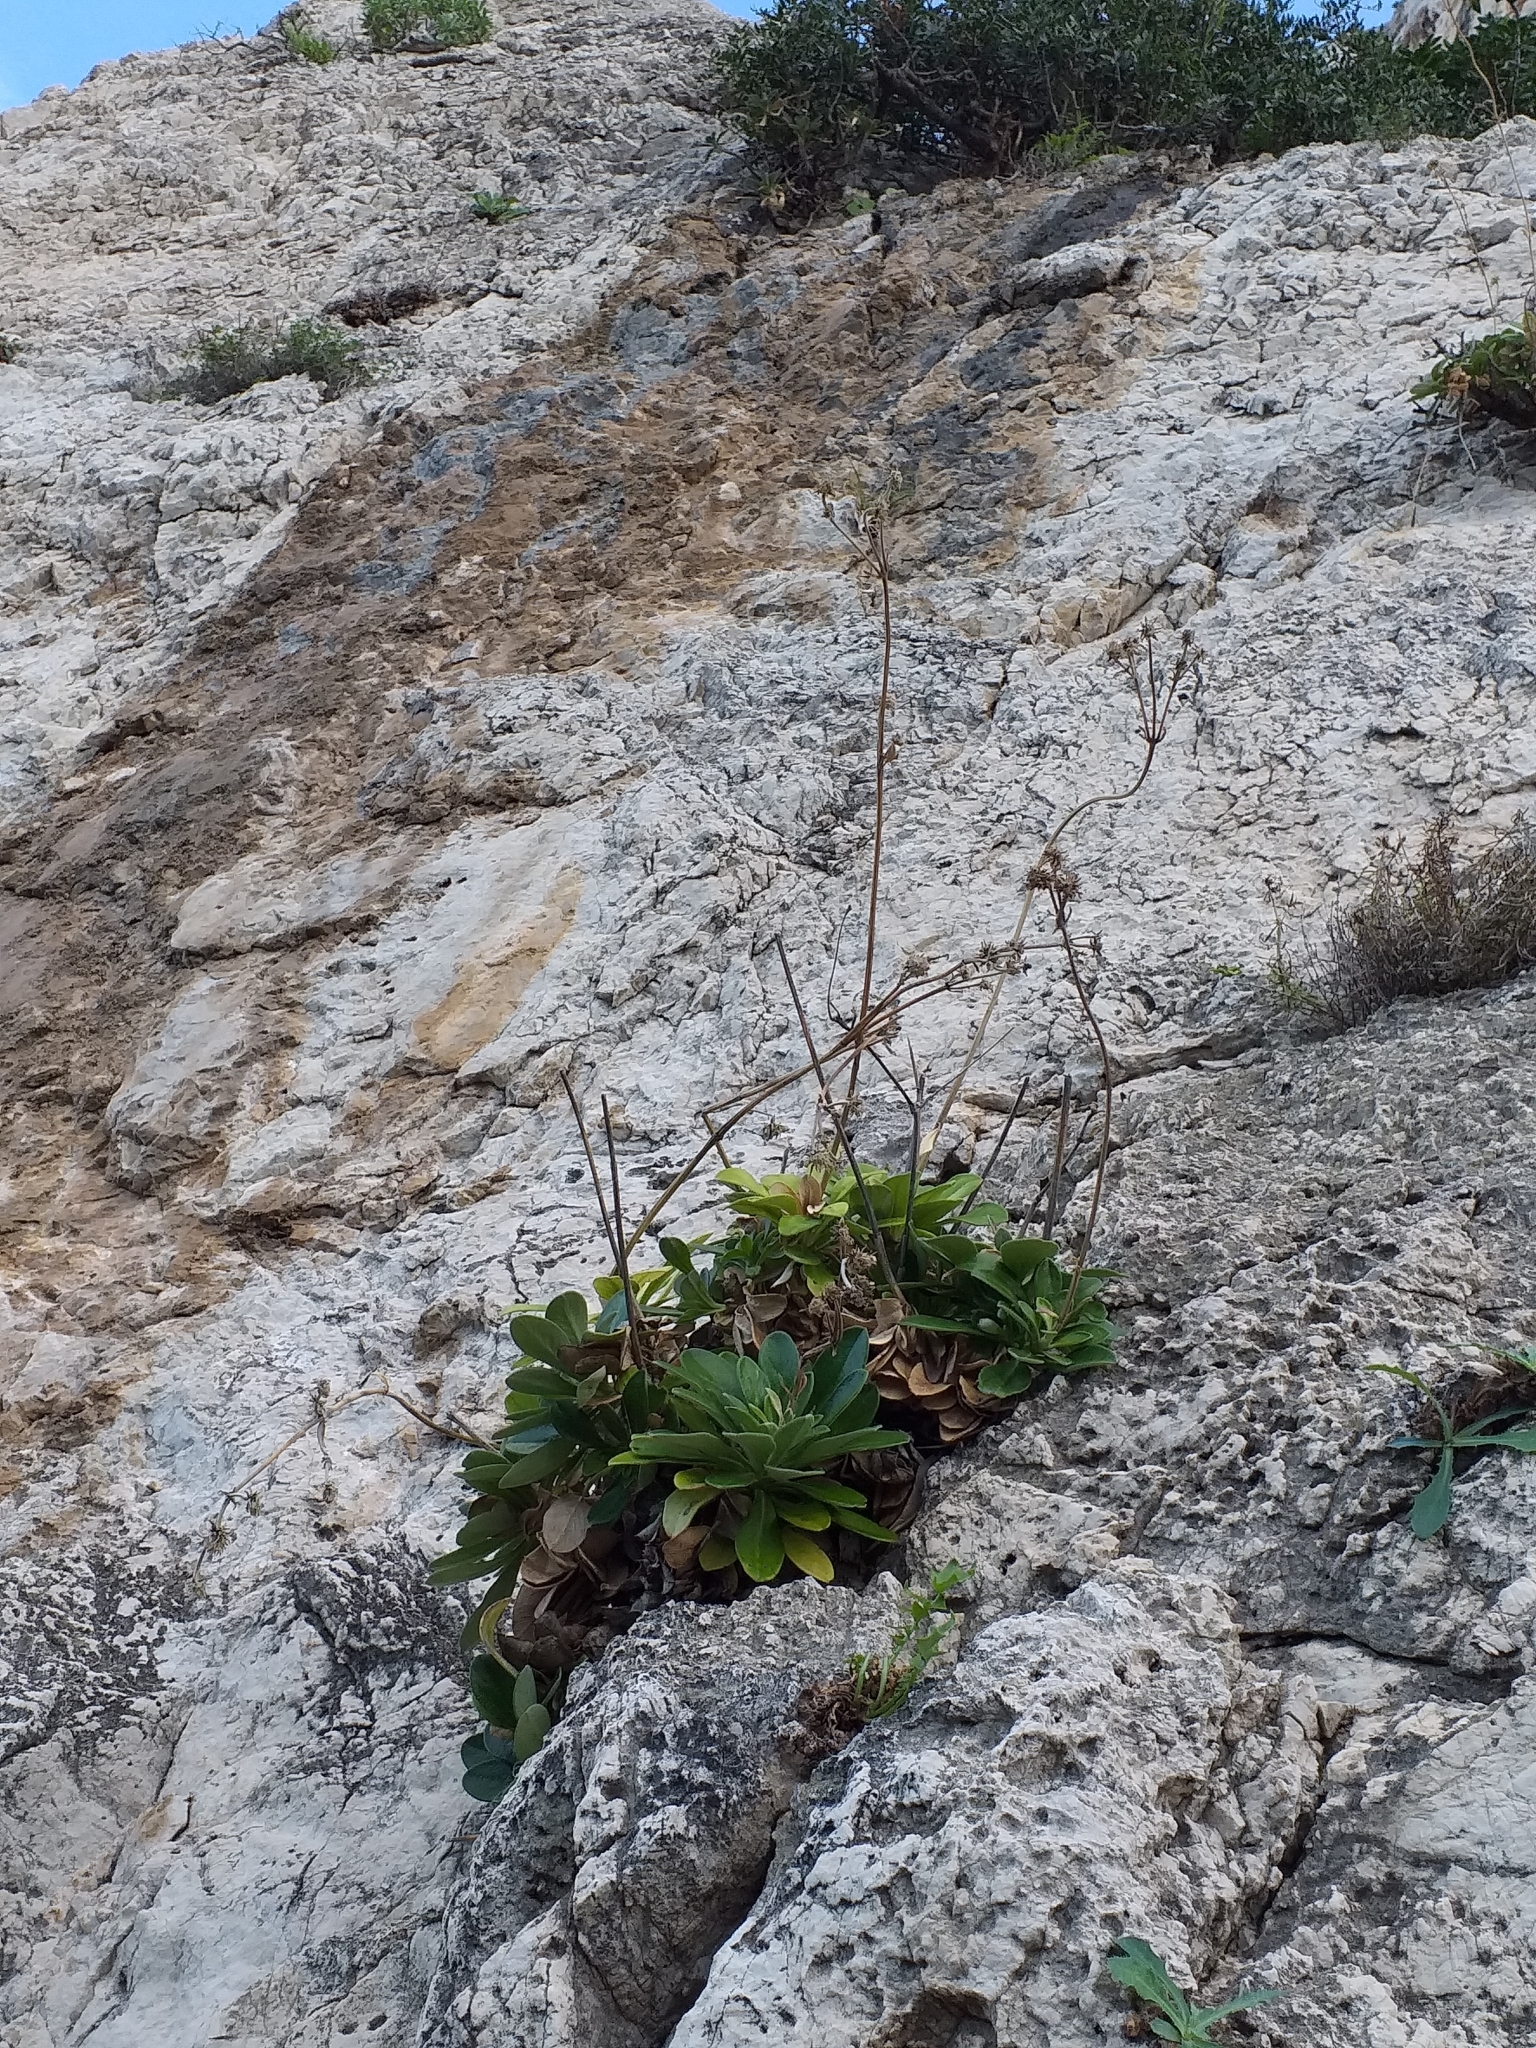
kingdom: Plantae
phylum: Tracheophyta
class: Magnoliopsida
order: Dipsacales
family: Caprifoliaceae
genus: Pseudoscabiosa
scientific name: Pseudoscabiosa limonifolia
